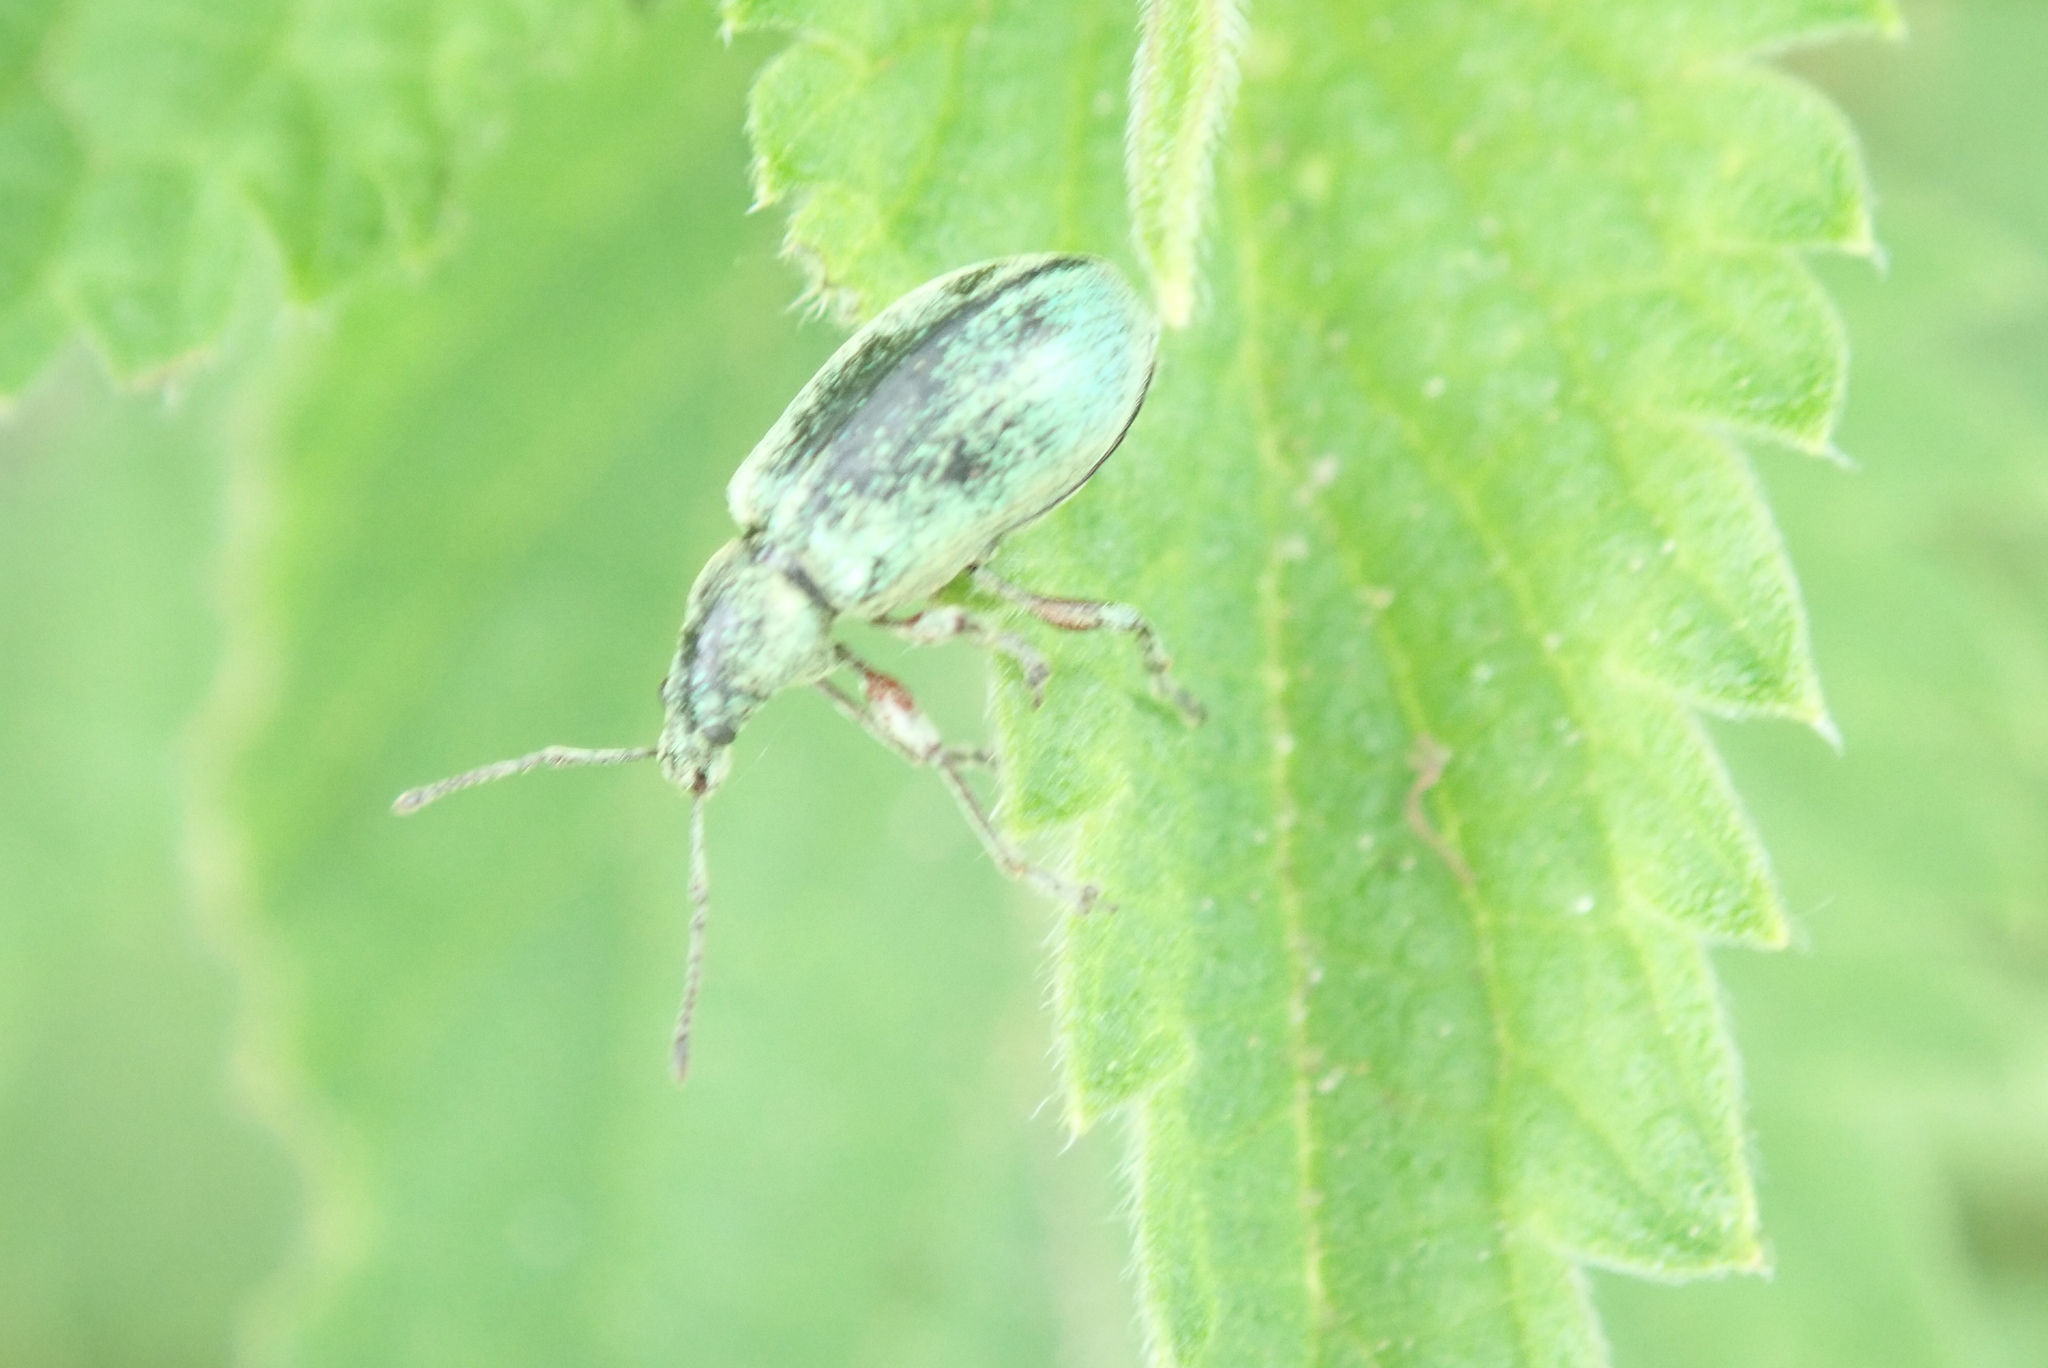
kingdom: Animalia
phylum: Arthropoda
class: Insecta
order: Coleoptera
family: Curculionidae
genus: Phyllobius
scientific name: Phyllobius pomaceus
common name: Green nettle weevil
